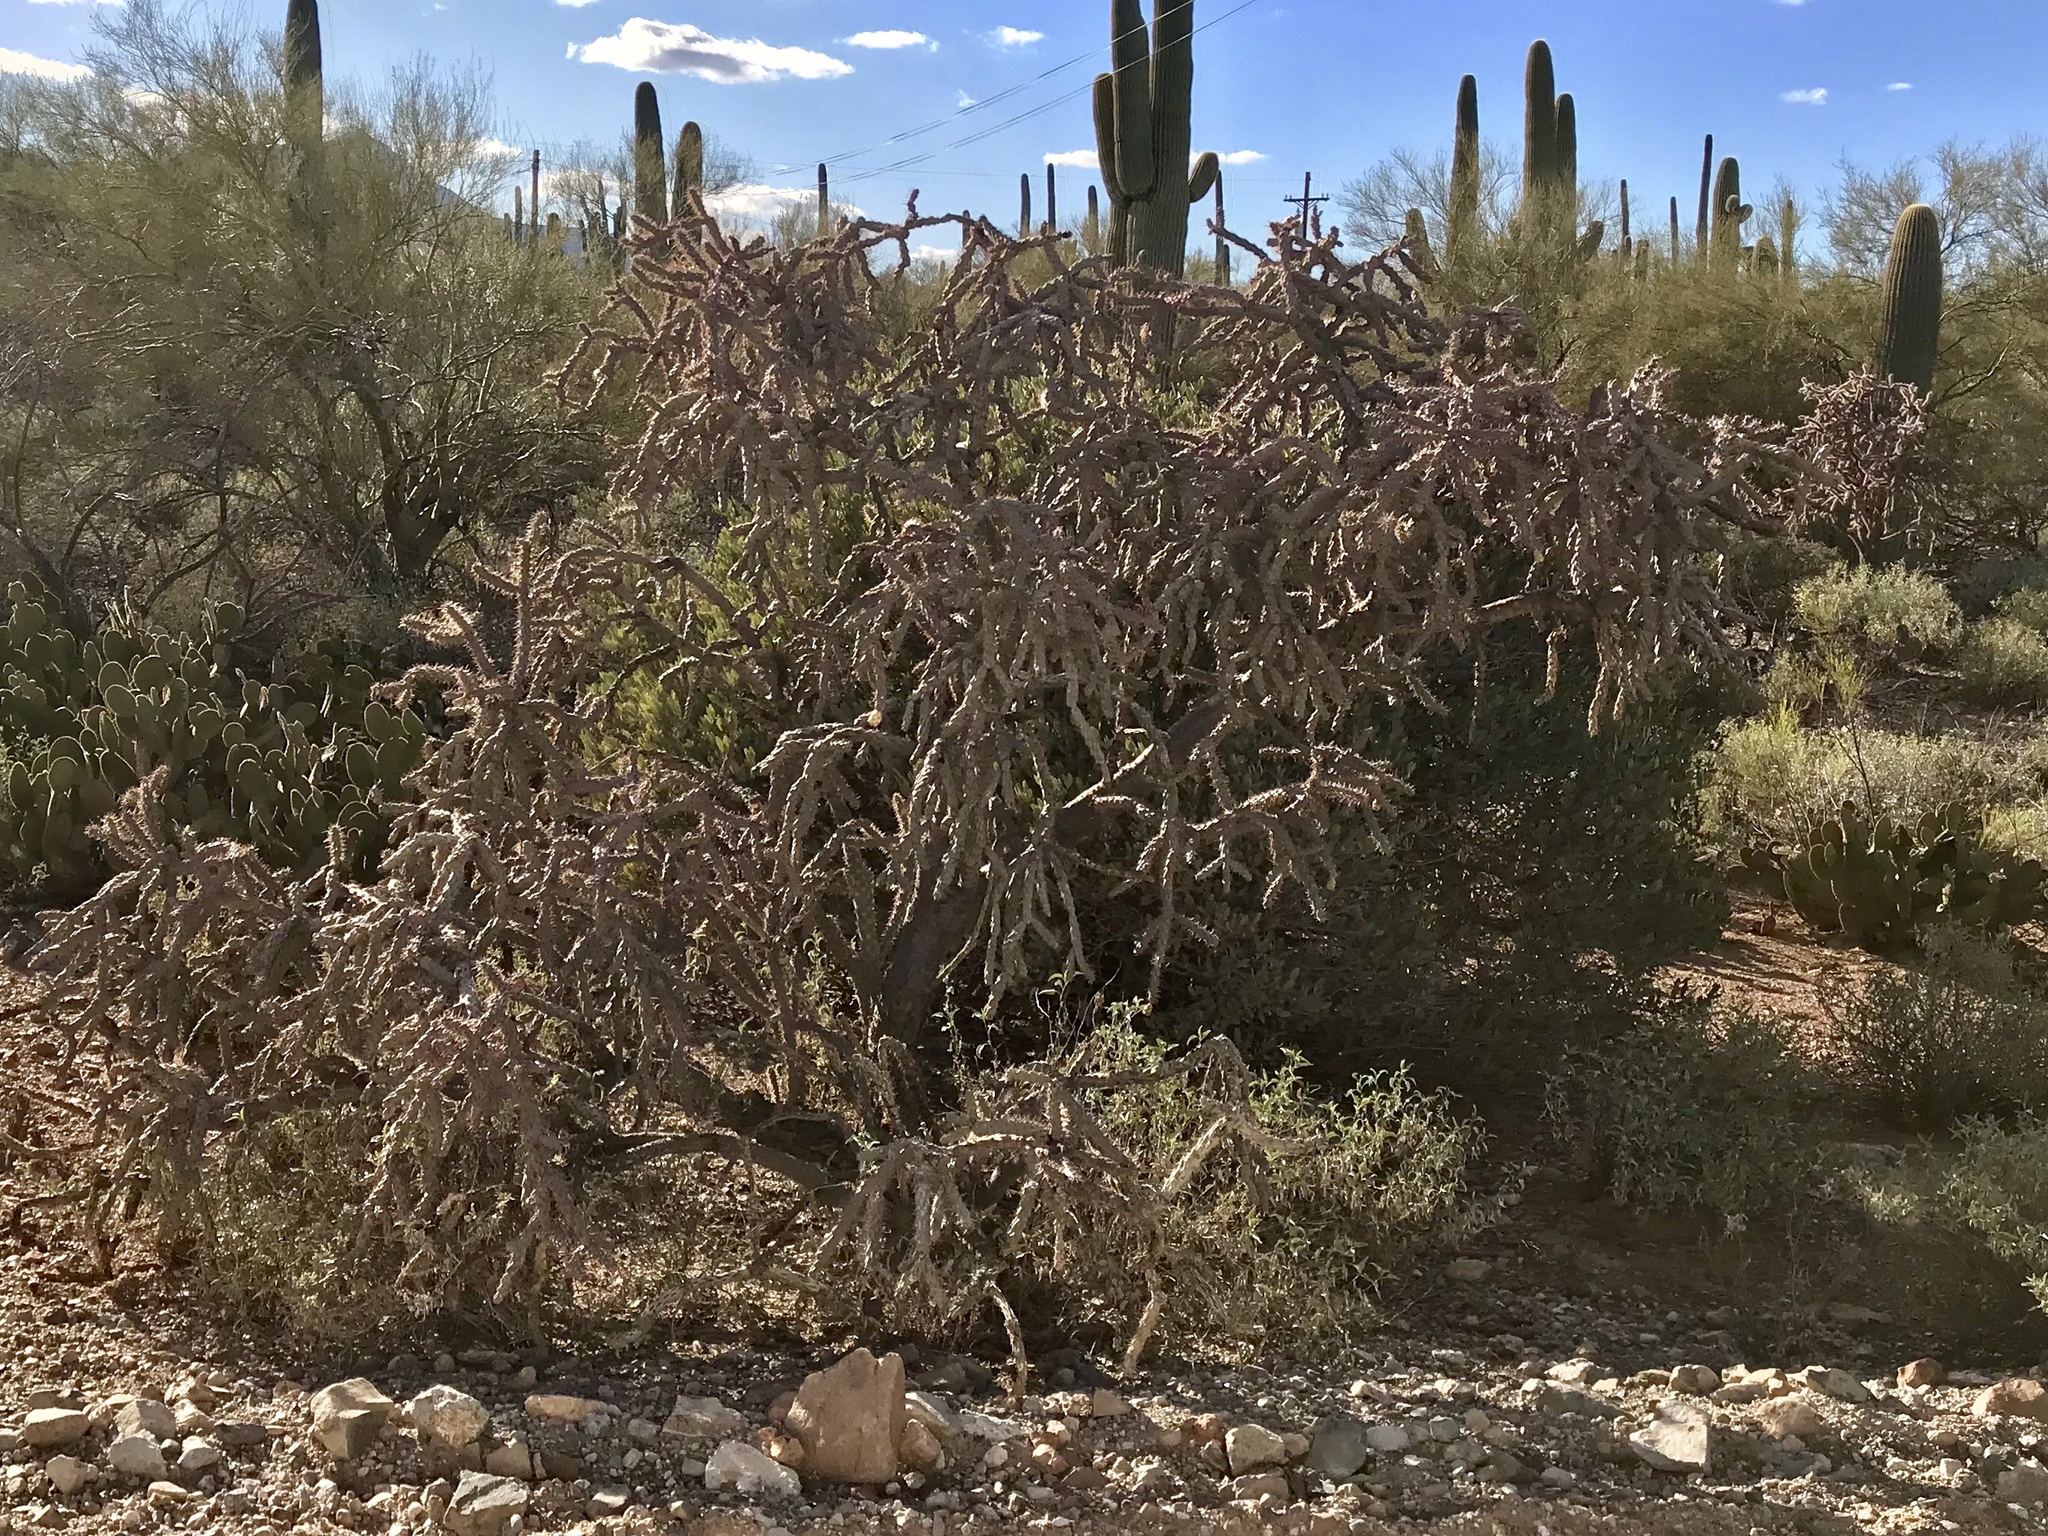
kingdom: Plantae
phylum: Tracheophyta
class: Magnoliopsida
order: Caryophyllales
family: Cactaceae
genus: Cylindropuntia
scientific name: Cylindropuntia thurberi
